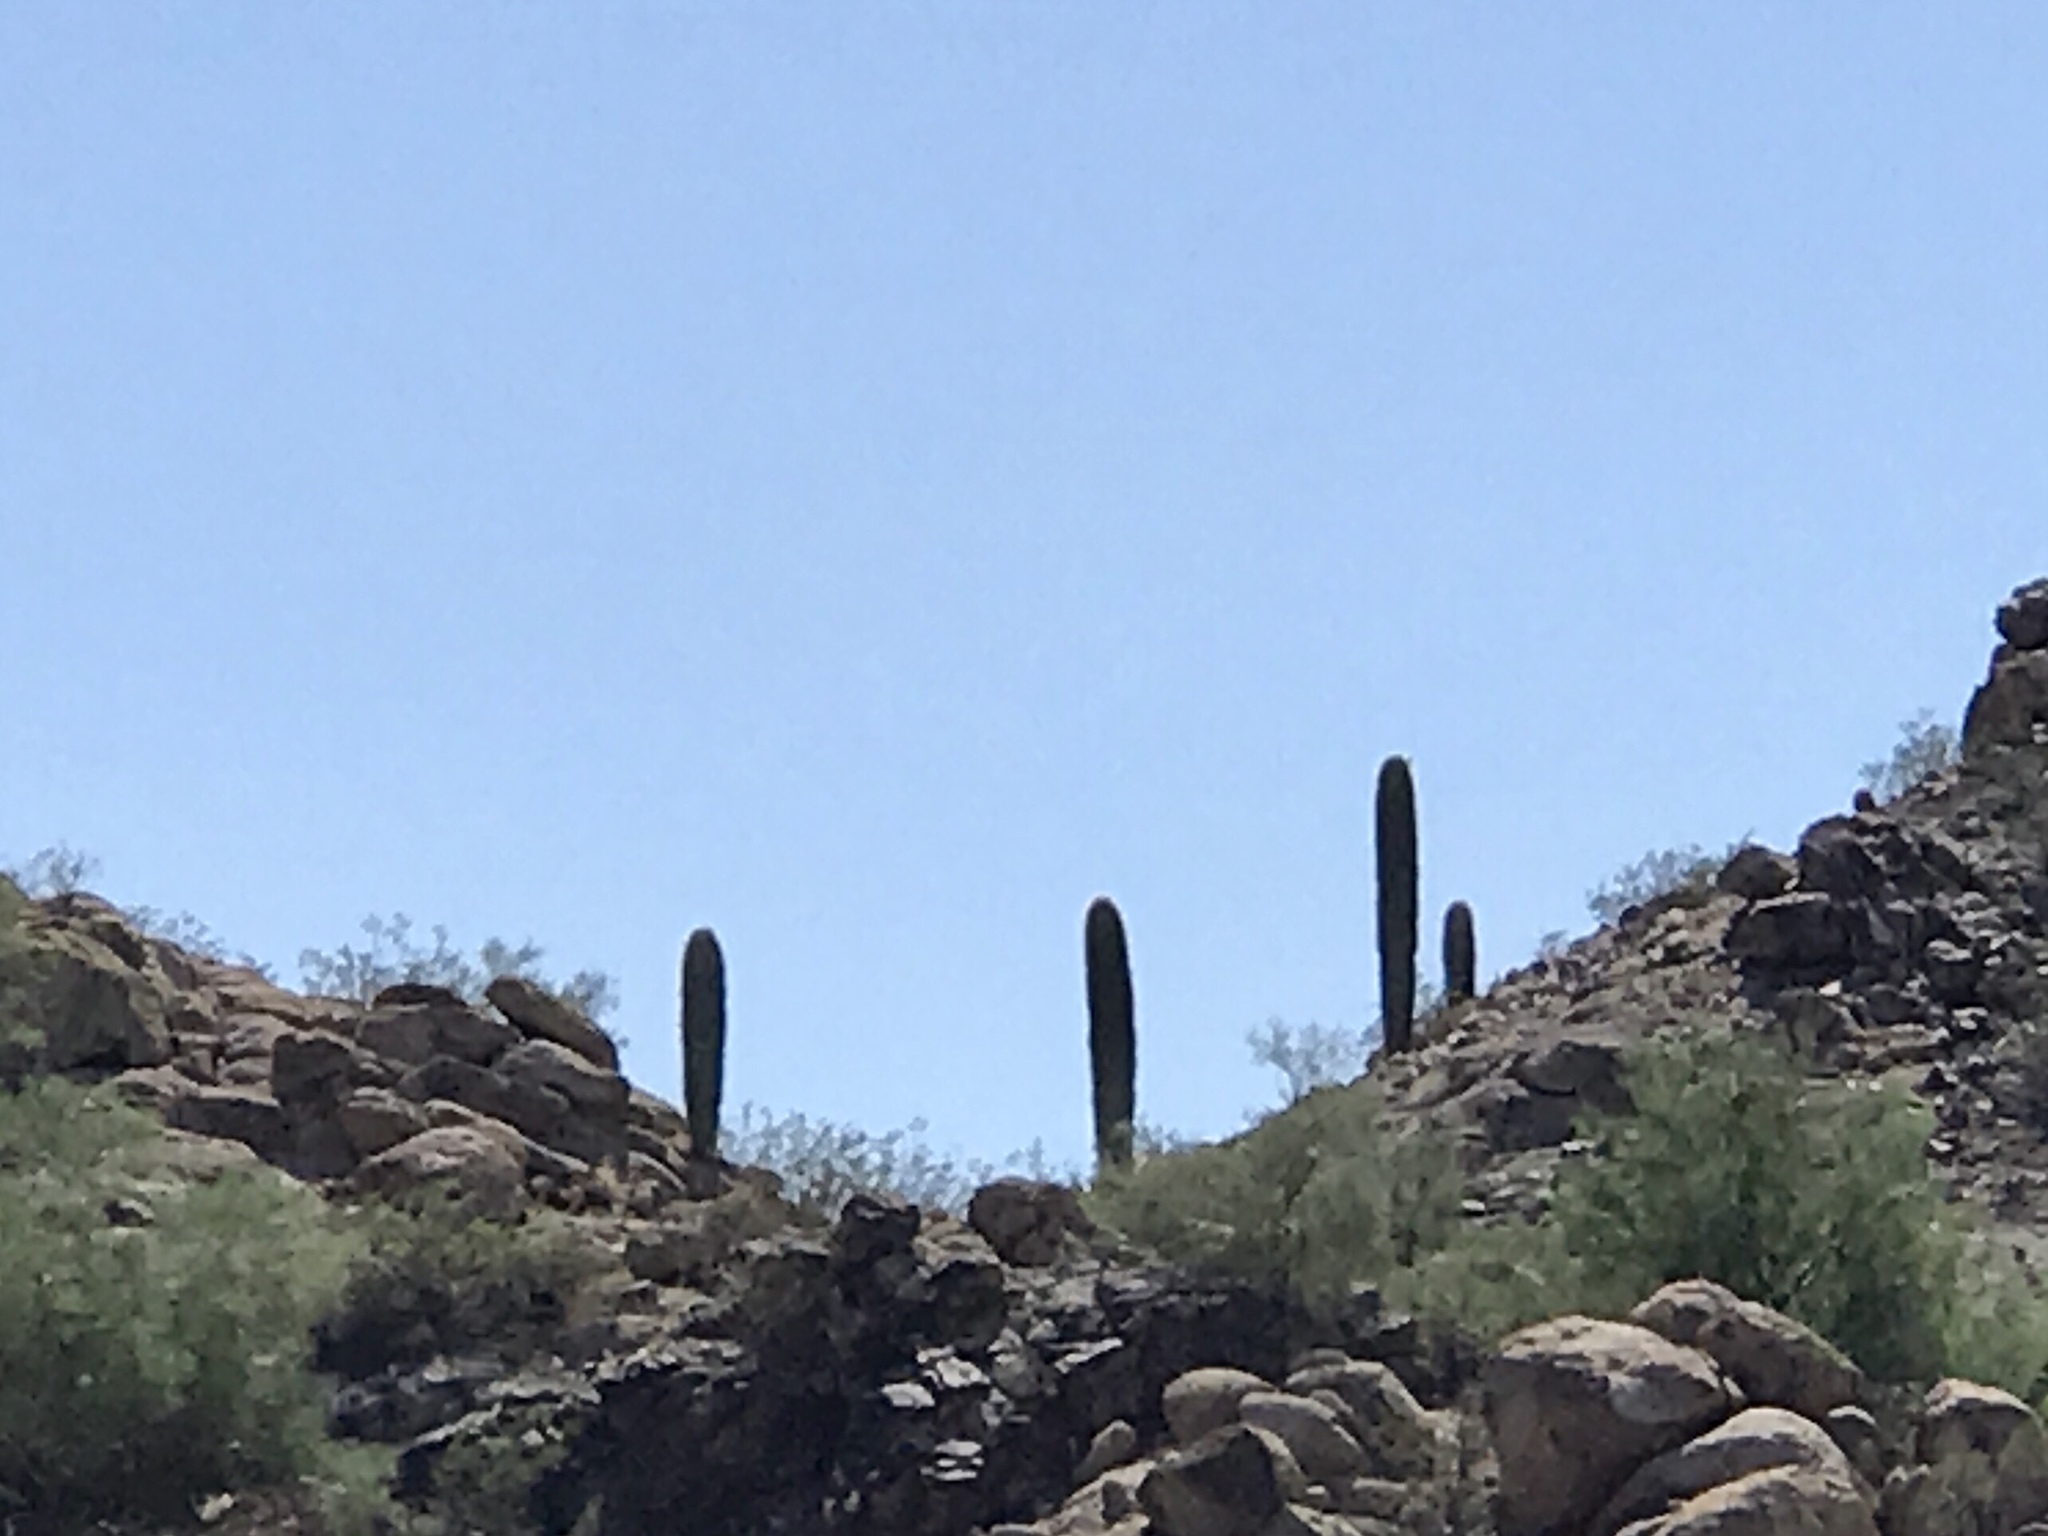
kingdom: Plantae
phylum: Tracheophyta
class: Magnoliopsida
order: Caryophyllales
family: Cactaceae
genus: Carnegiea
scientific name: Carnegiea gigantea
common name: Saguaro
